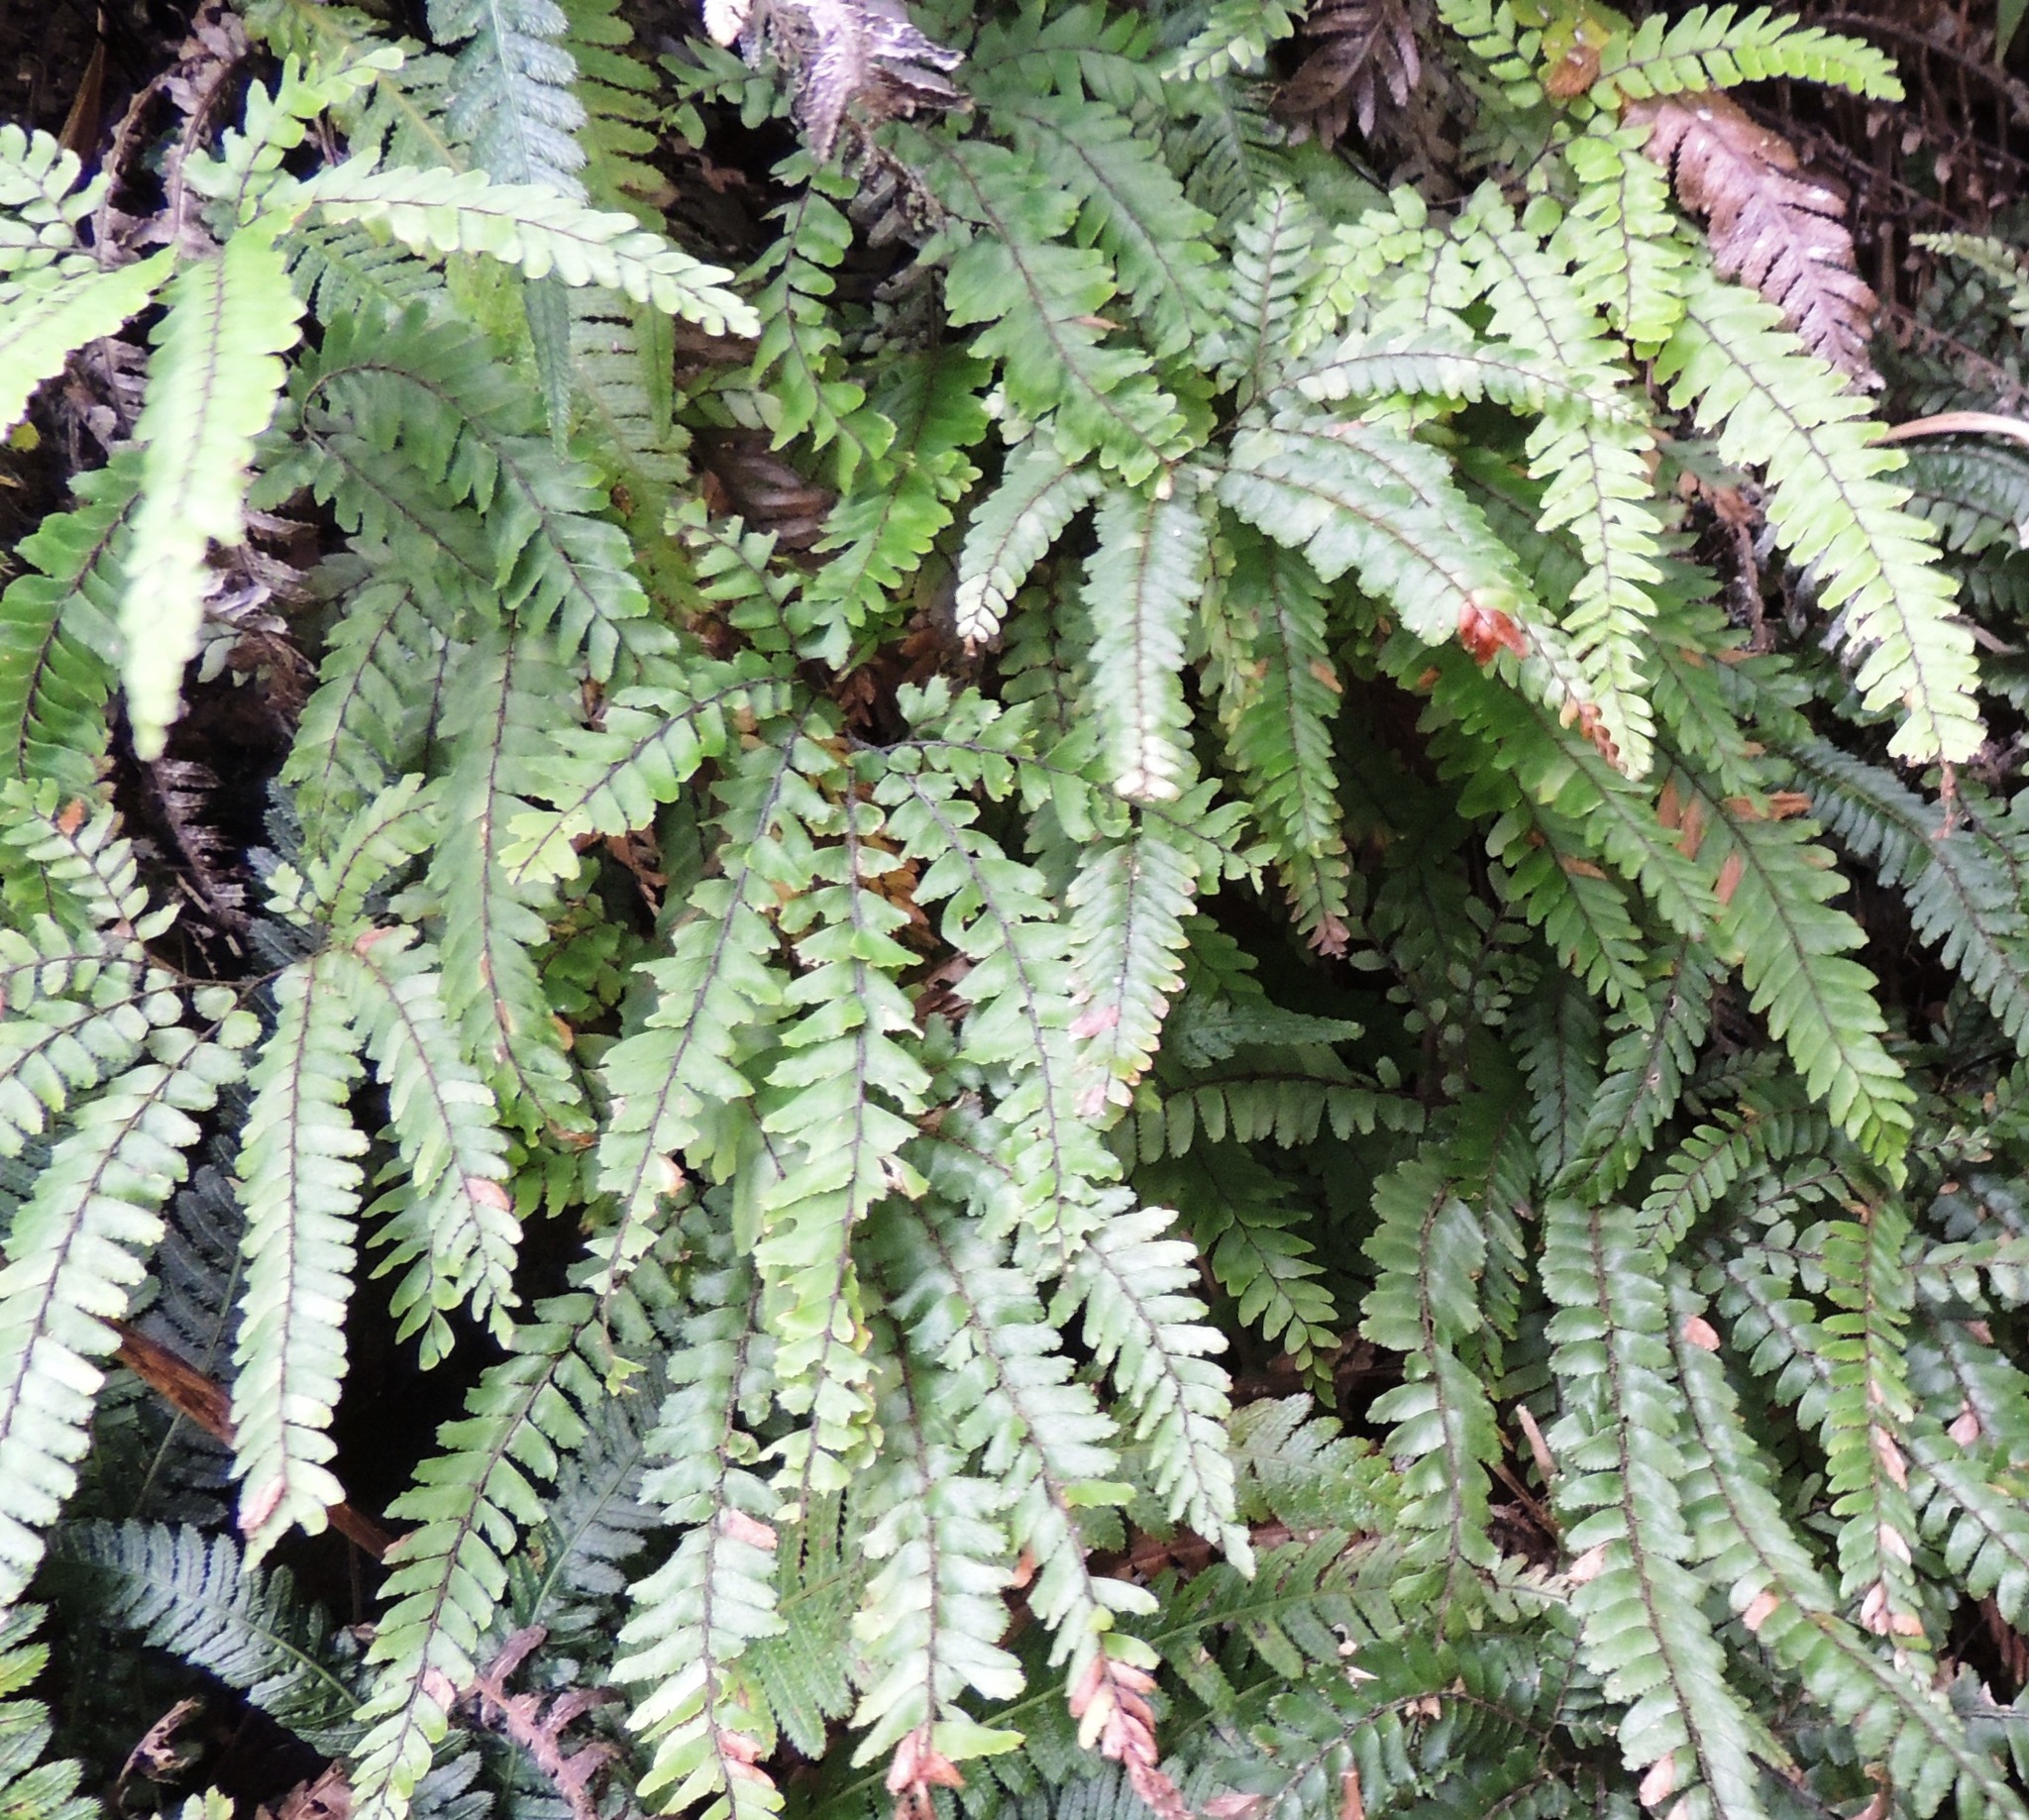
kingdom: Plantae
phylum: Tracheophyta
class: Polypodiopsida
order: Polypodiales
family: Pteridaceae
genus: Adiantum
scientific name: Adiantum hispidulum
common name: Rough maidenhair
